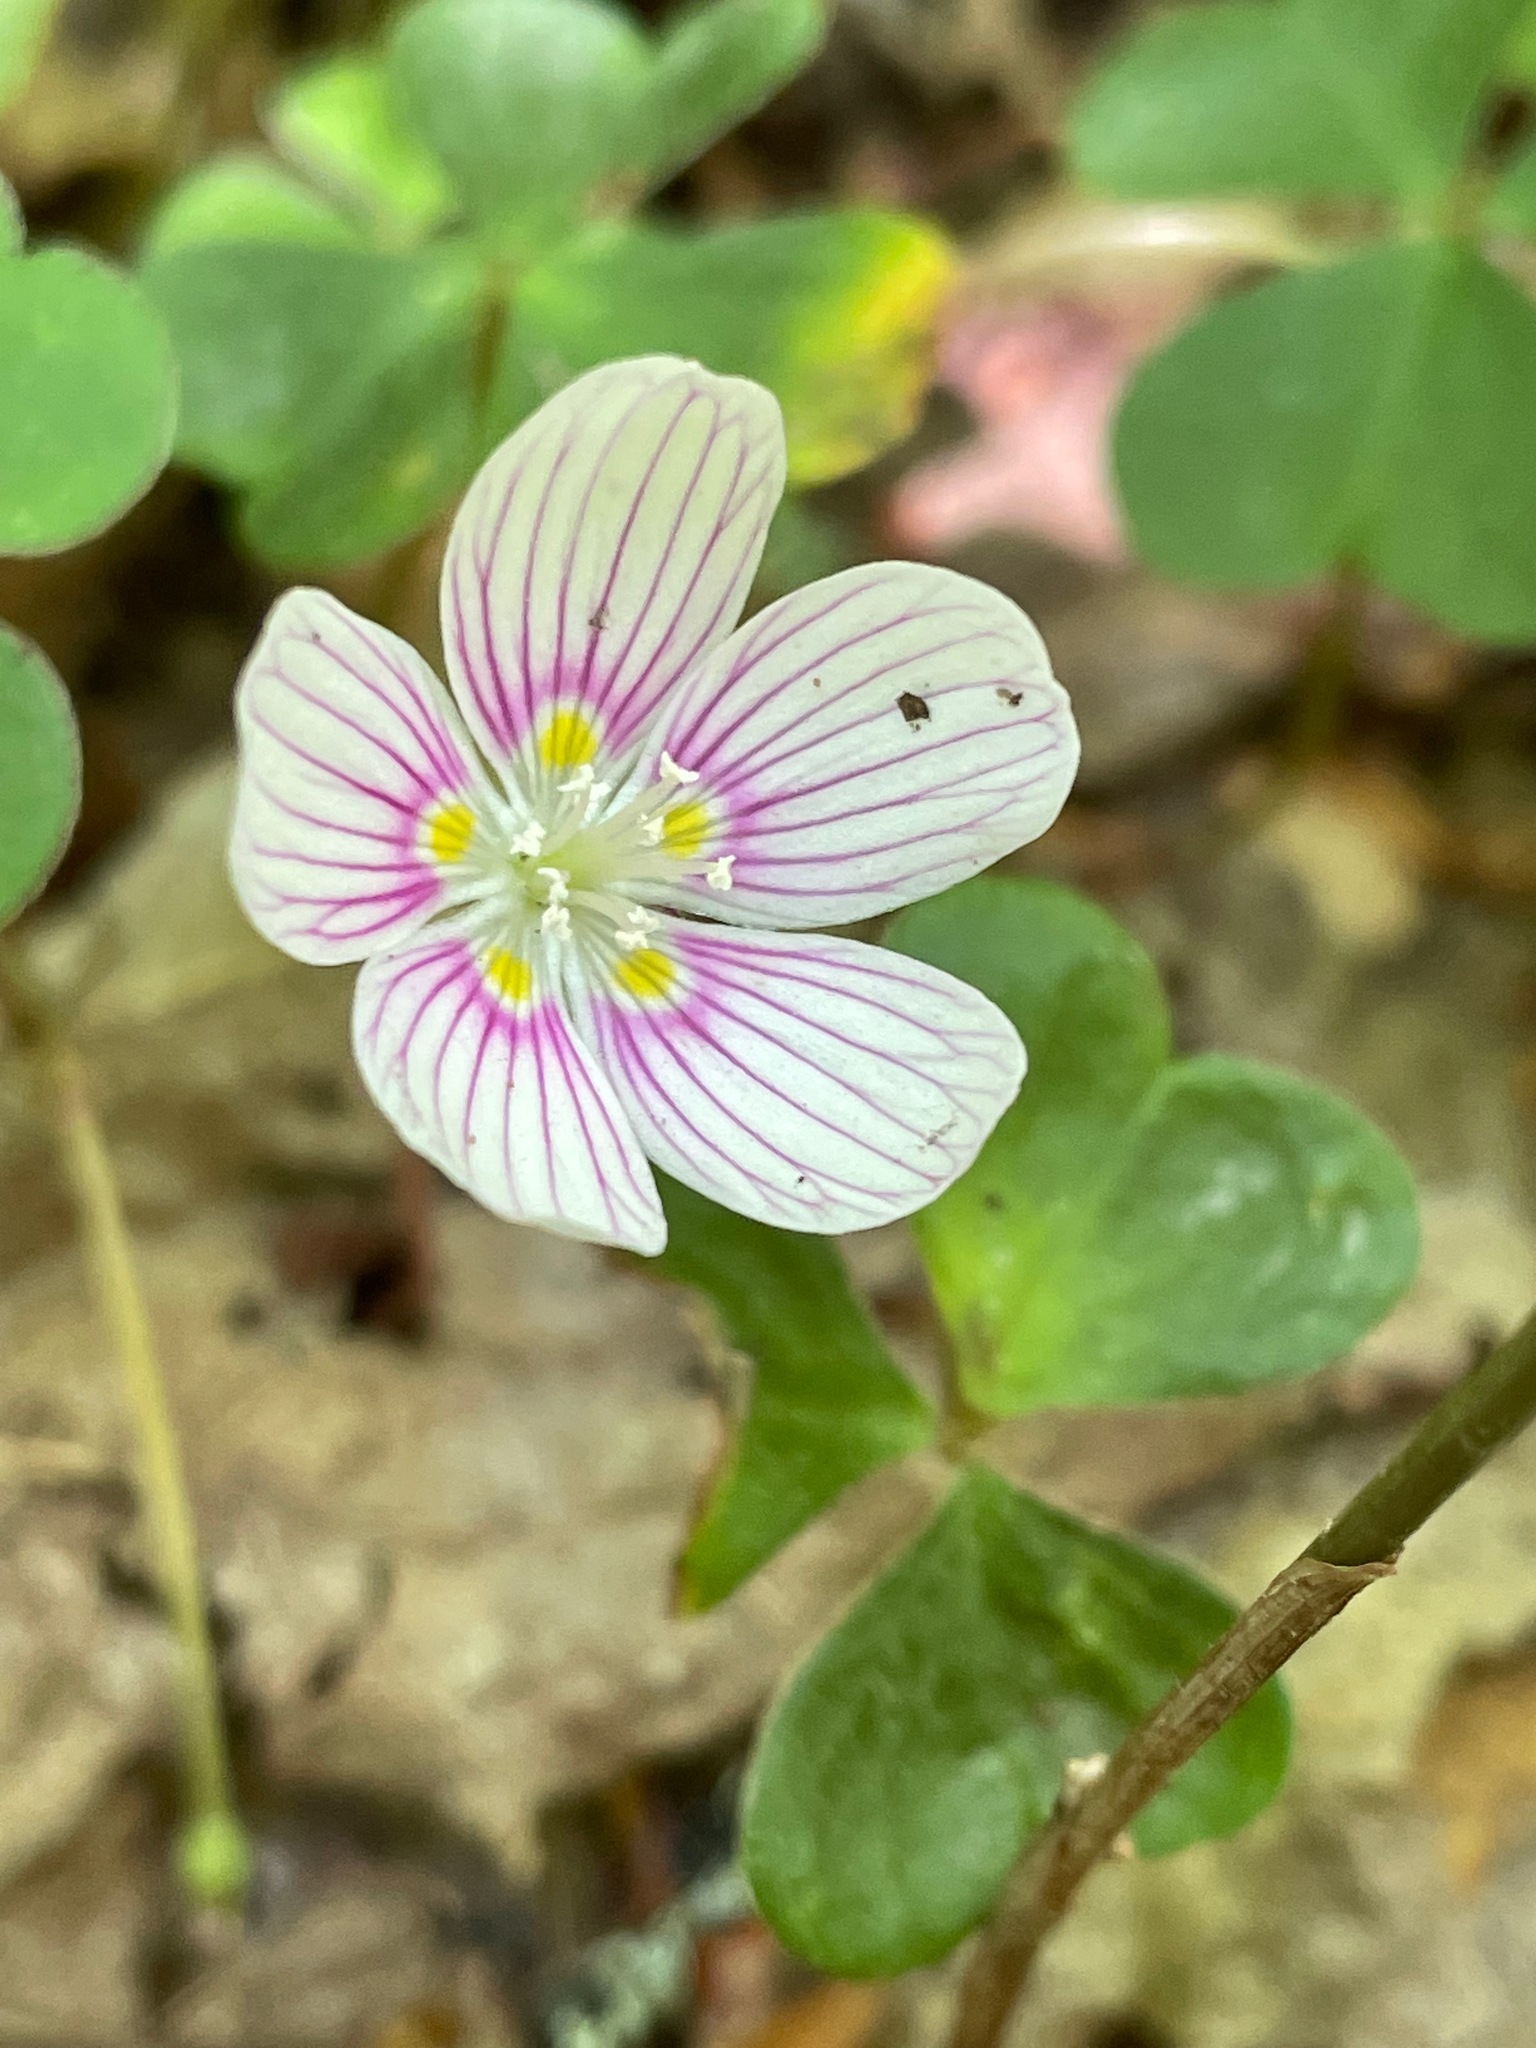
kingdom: Plantae
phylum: Tracheophyta
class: Magnoliopsida
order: Oxalidales
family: Oxalidaceae
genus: Oxalis
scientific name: Oxalis montana
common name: American wood-sorrel
